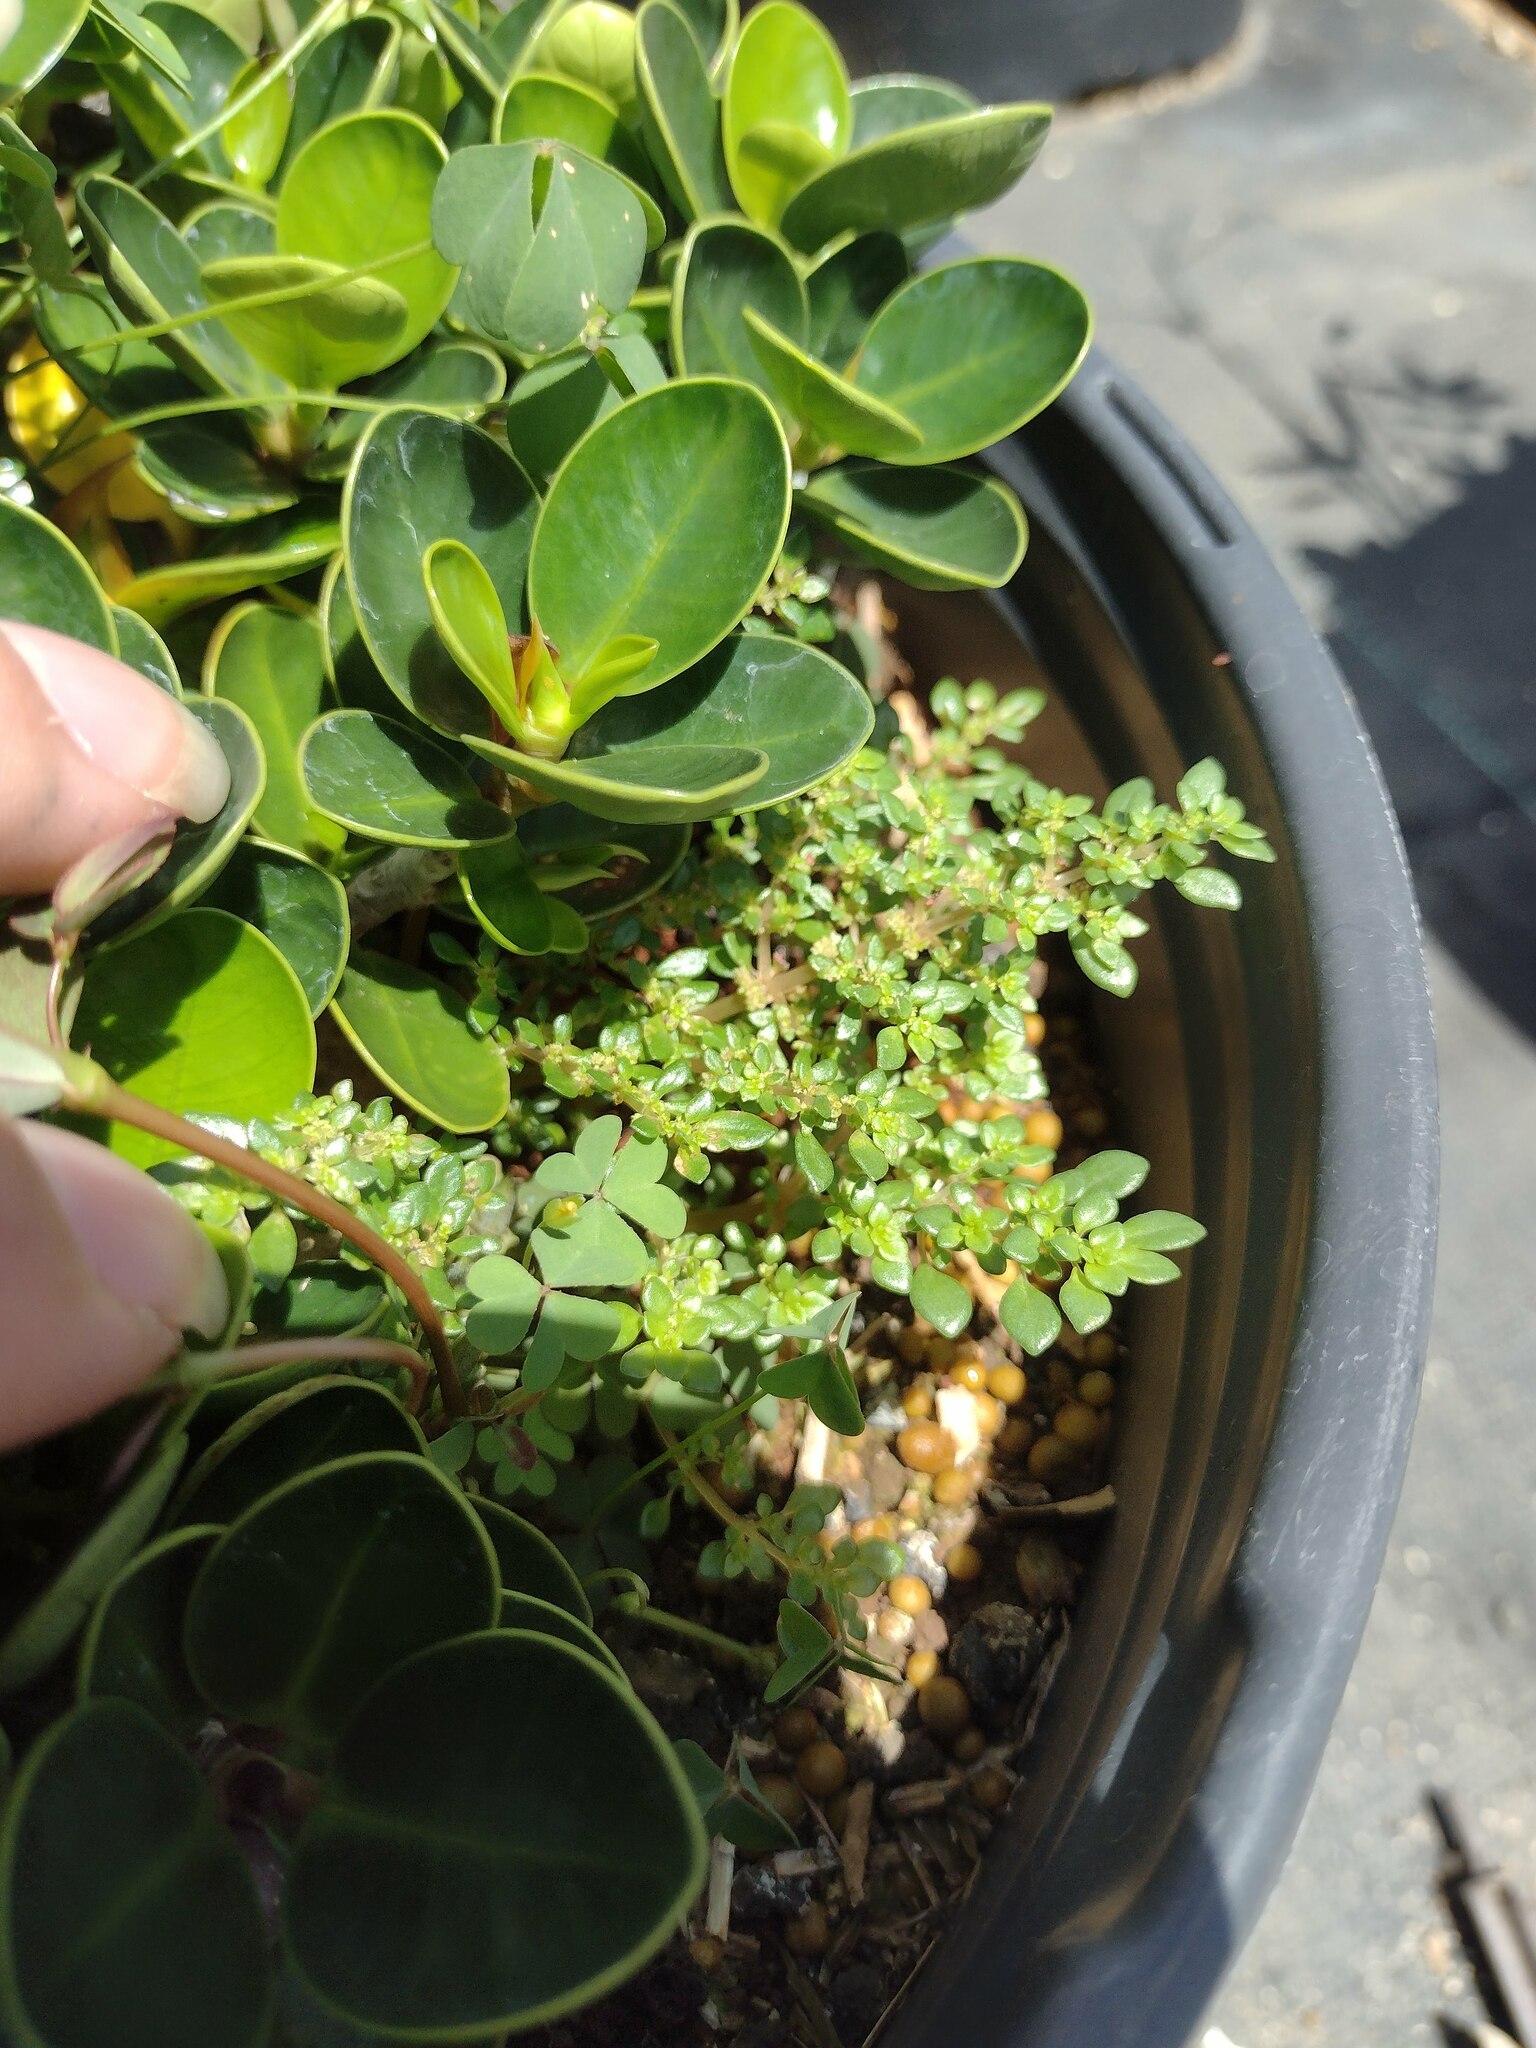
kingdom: Plantae
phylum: Tracheophyta
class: Magnoliopsida
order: Rosales
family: Urticaceae
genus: Pilea
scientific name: Pilea microphylla
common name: Artillery-plant
